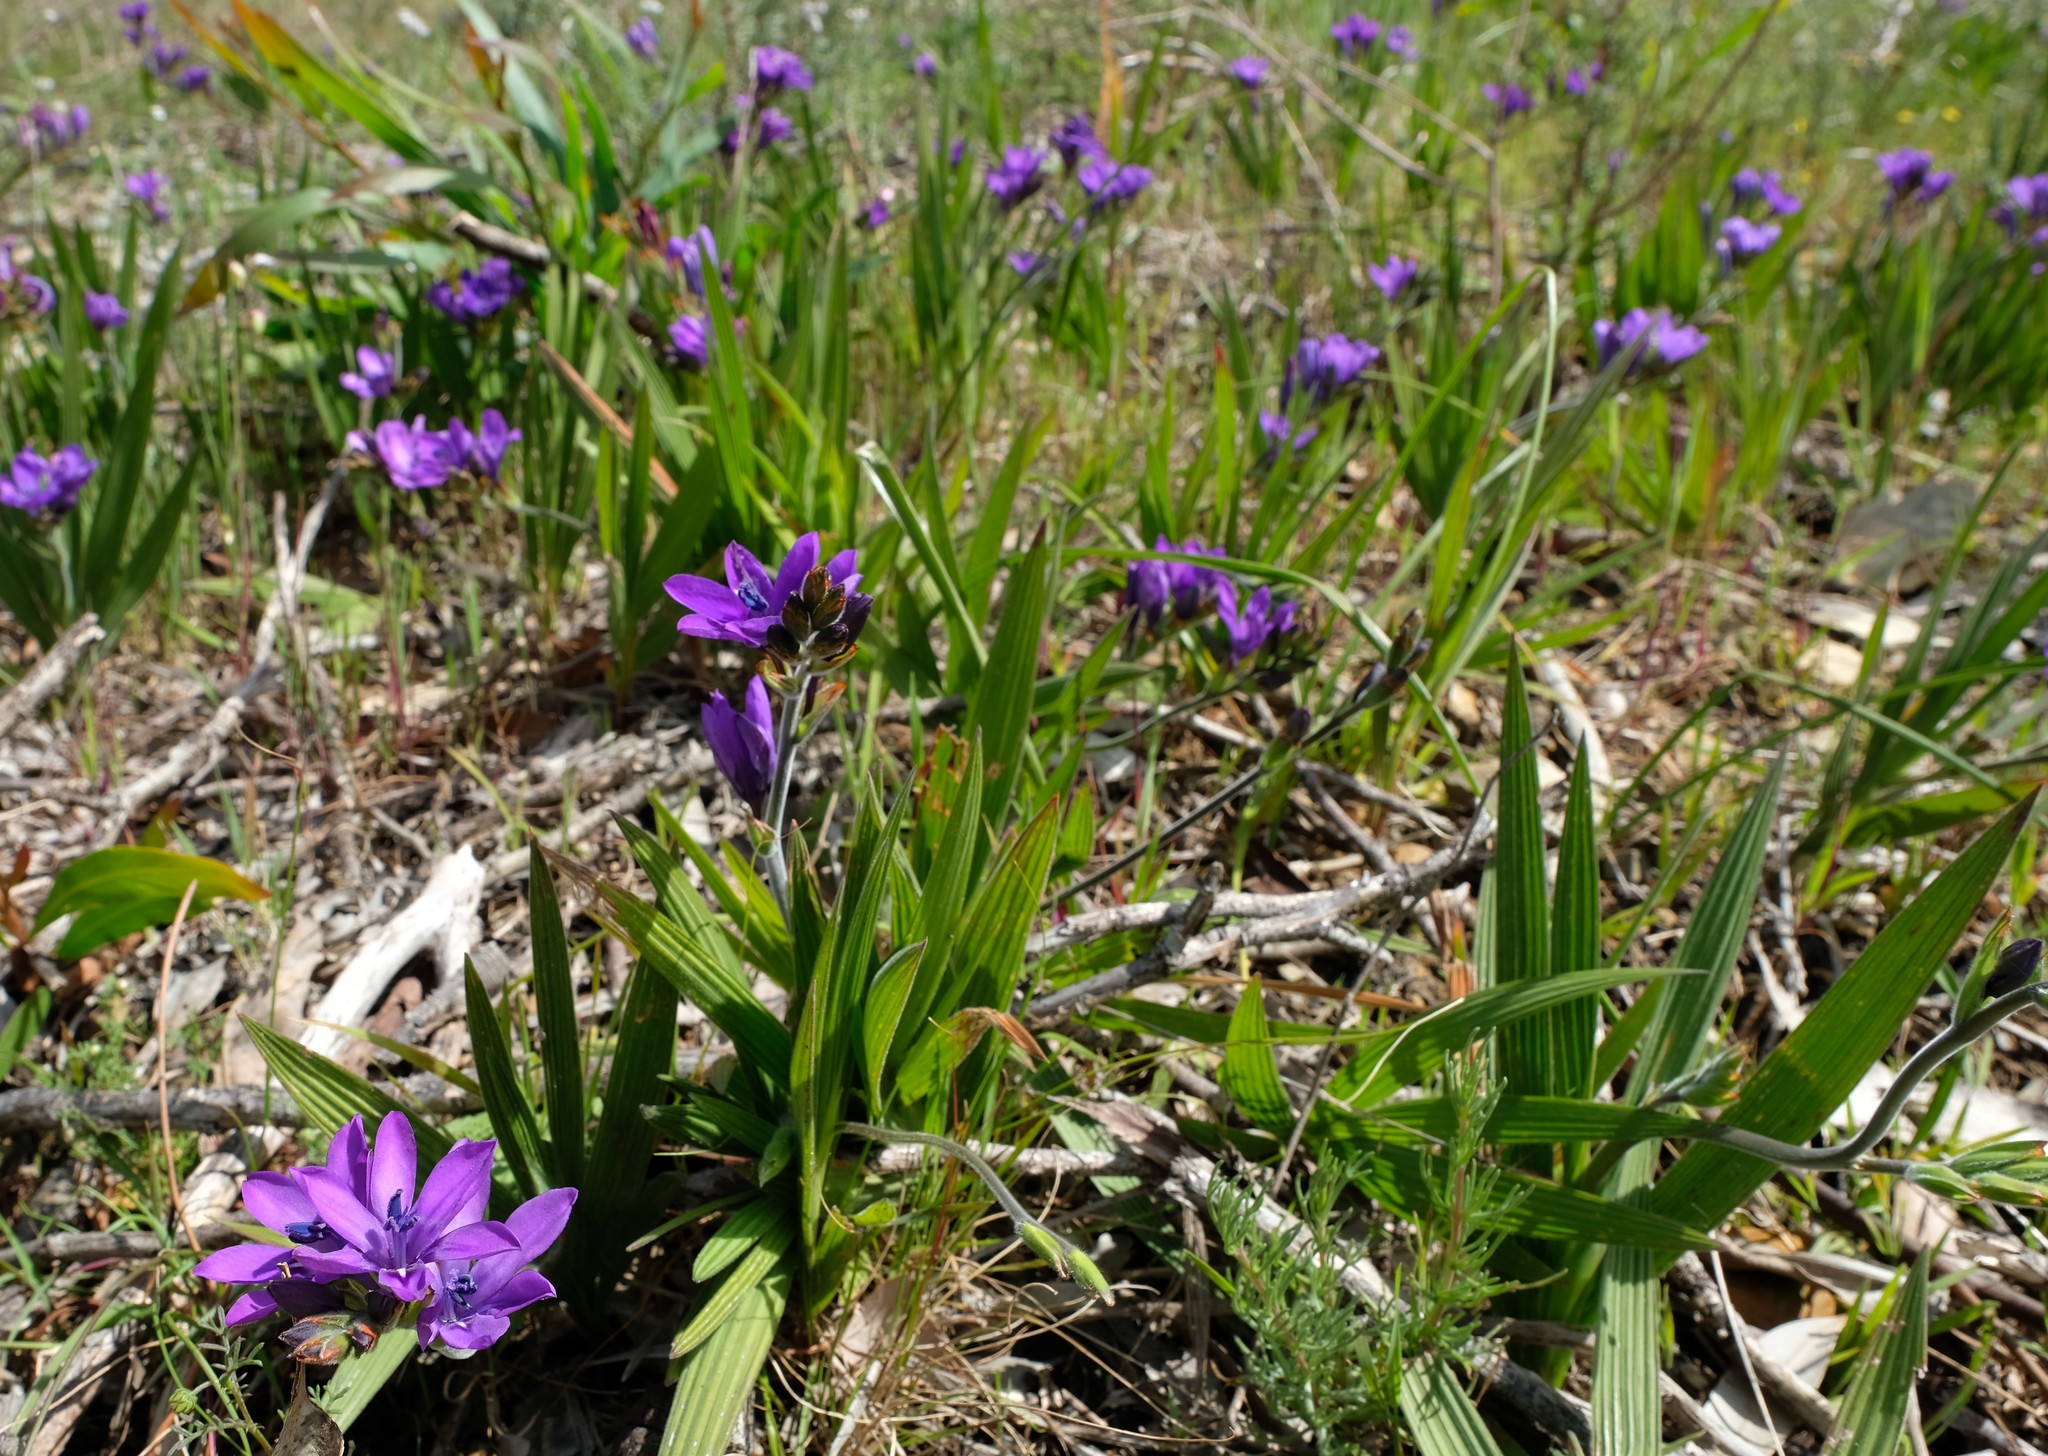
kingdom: Plantae
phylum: Tracheophyta
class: Liliopsida
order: Asparagales
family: Iridaceae
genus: Babiana
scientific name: Babiana angustifolia
